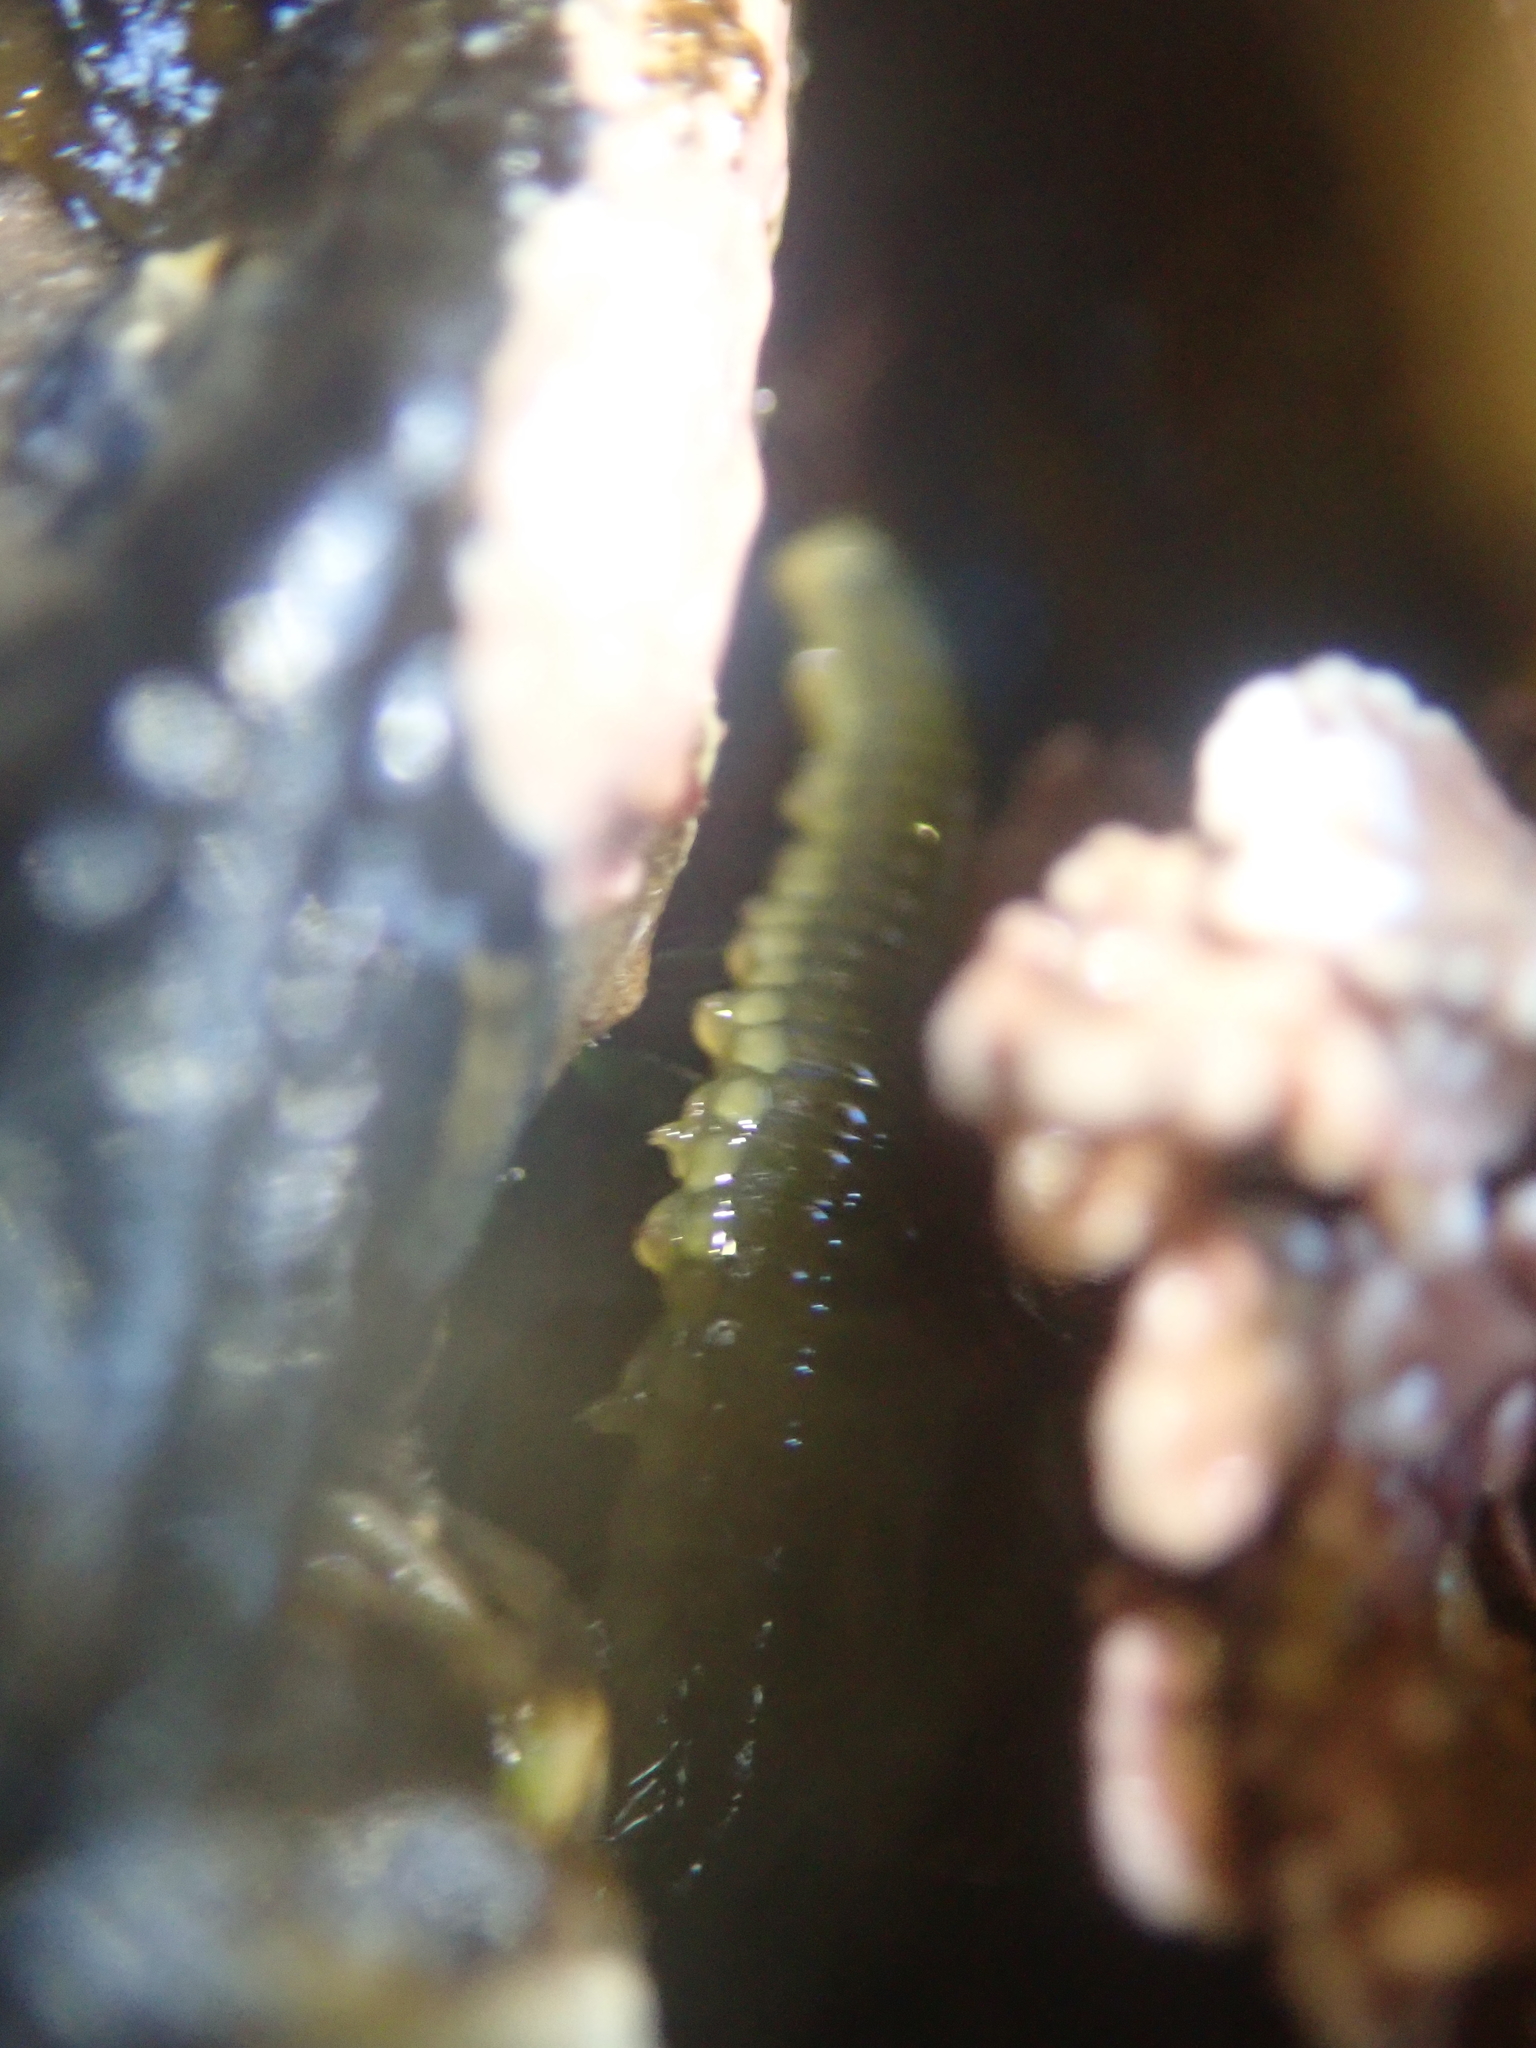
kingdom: Animalia
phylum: Annelida
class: Polychaeta
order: Phyllodocida
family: Phyllodocidae
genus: Eulalia
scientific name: Eulalia microphylla
